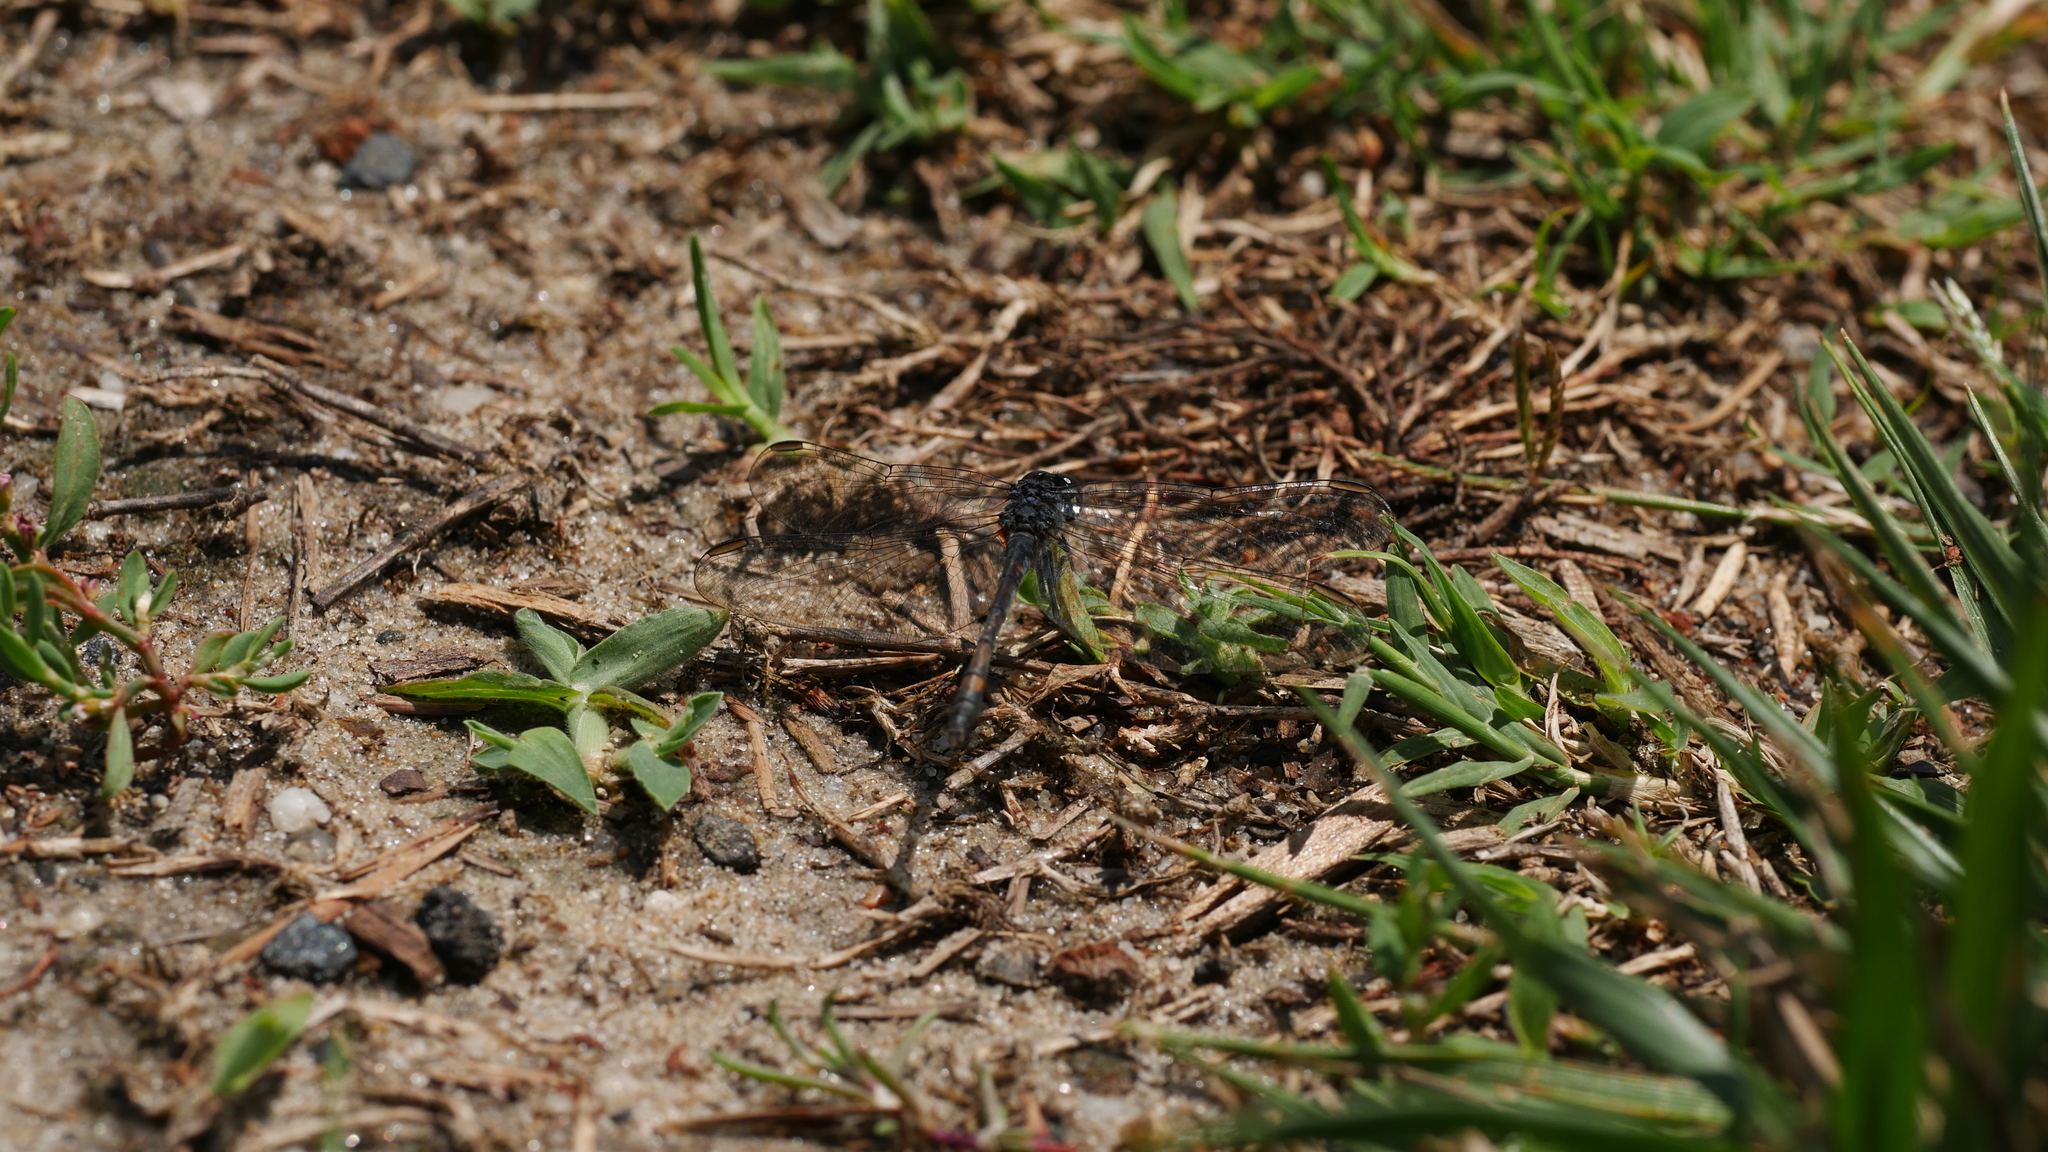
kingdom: Animalia
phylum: Arthropoda
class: Insecta
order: Odonata
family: Libellulidae
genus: Erythrodiplax
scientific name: Erythrodiplax berenice
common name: Seaside dragonlet
